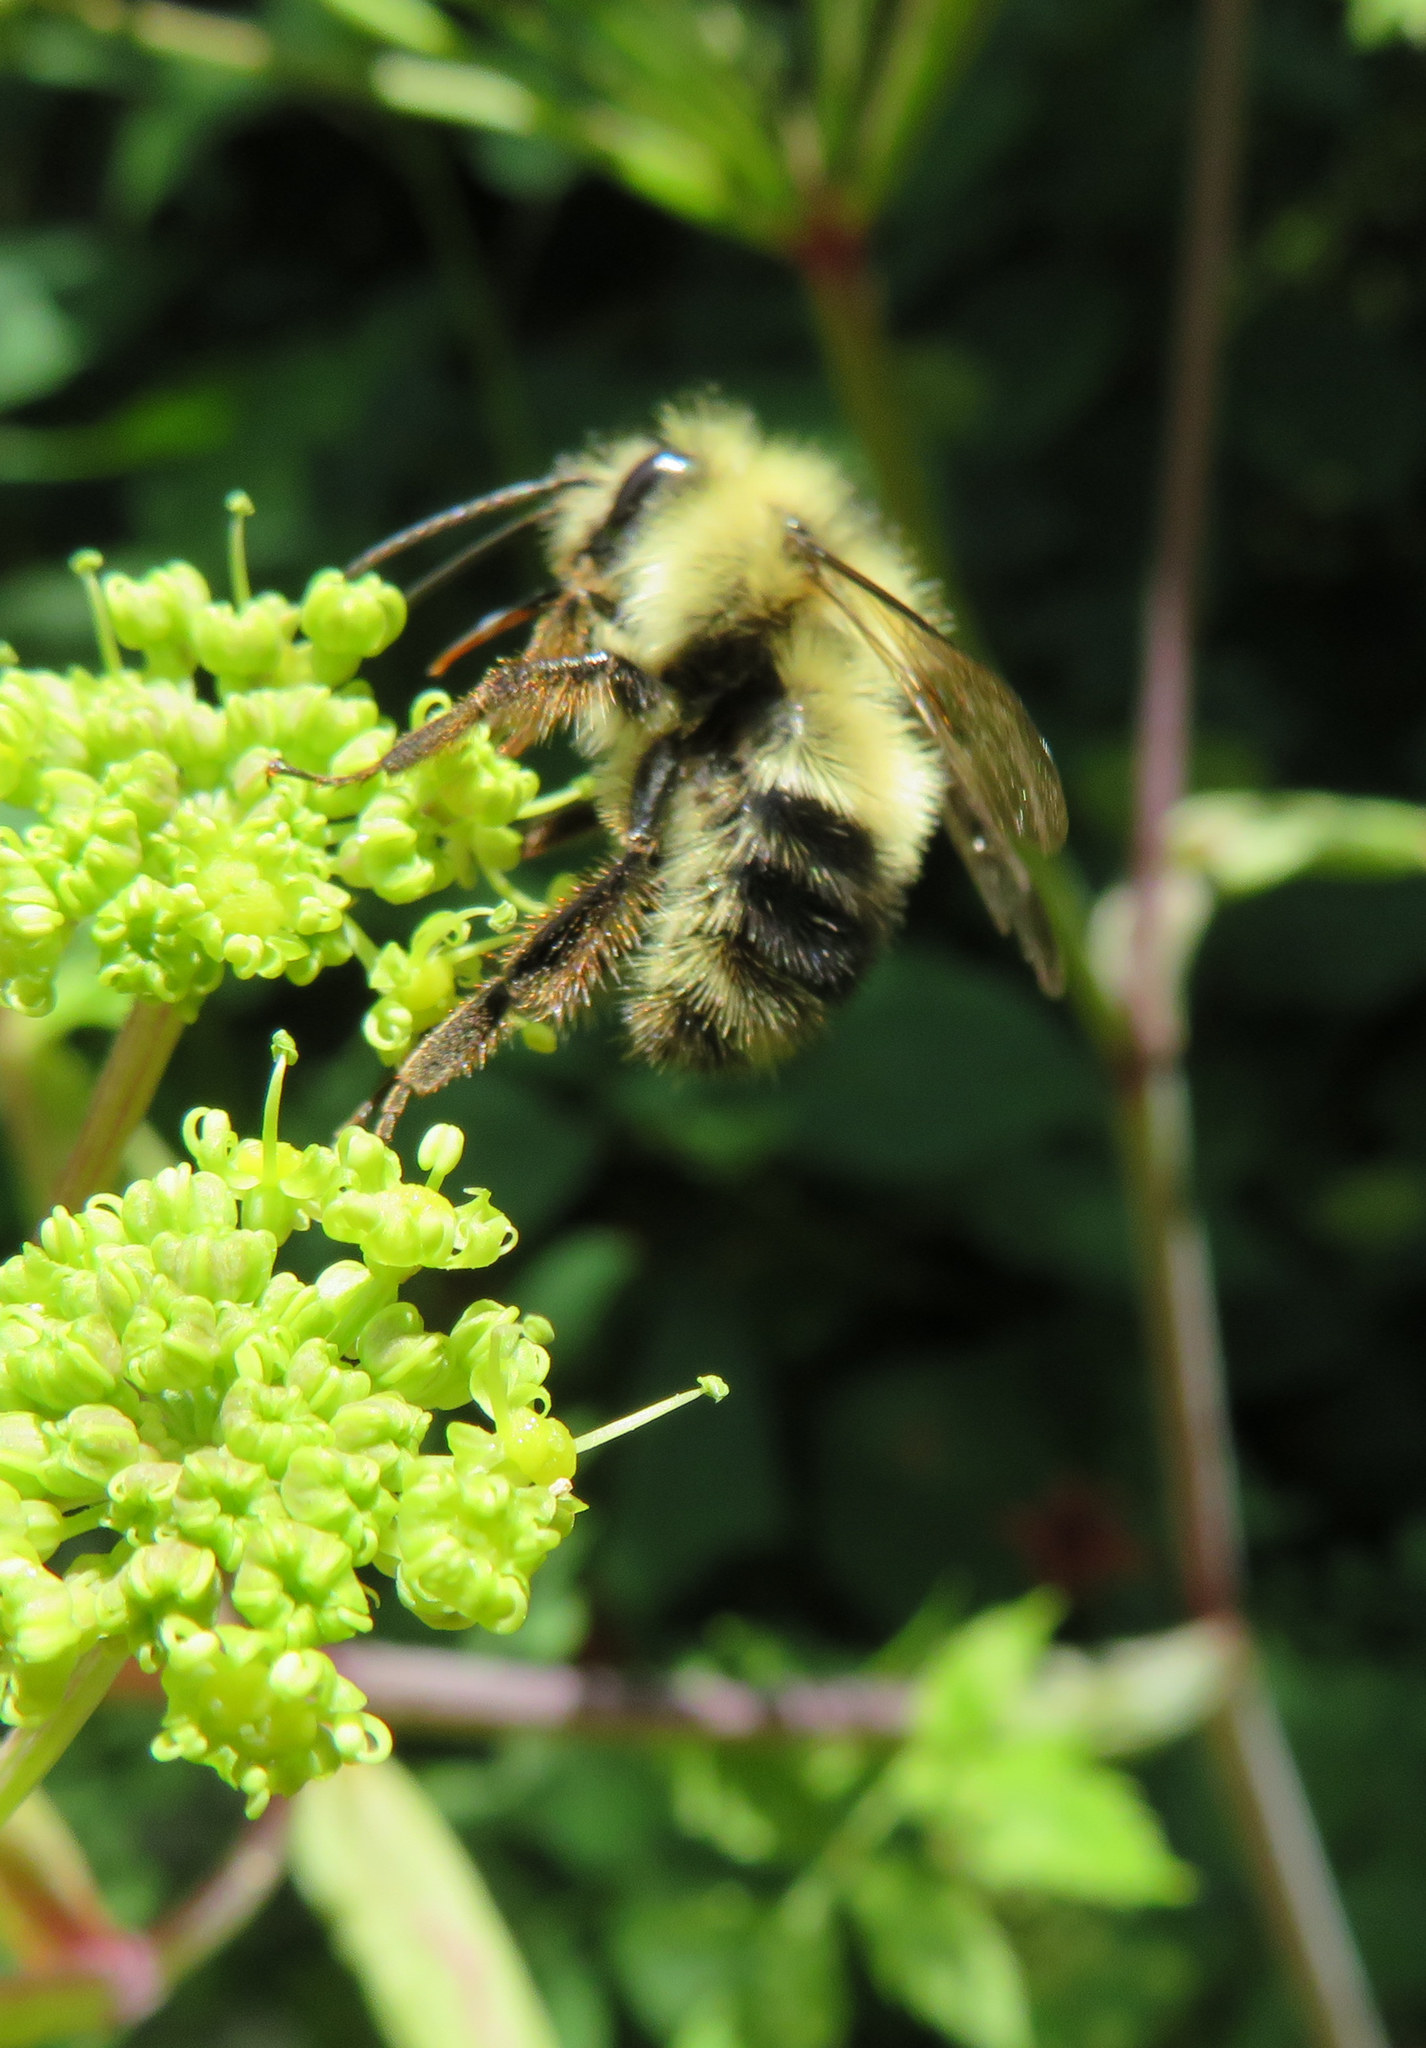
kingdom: Animalia
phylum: Arthropoda
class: Insecta
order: Hymenoptera
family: Apidae
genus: Pyrobombus
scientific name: Pyrobombus
